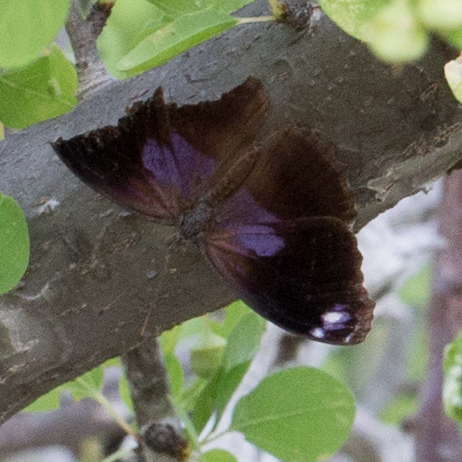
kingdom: Animalia
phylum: Arthropoda
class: Insecta
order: Lepidoptera
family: Nymphalidae
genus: Myscelia
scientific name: Myscelia cyananthe
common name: Blackened bluewing
